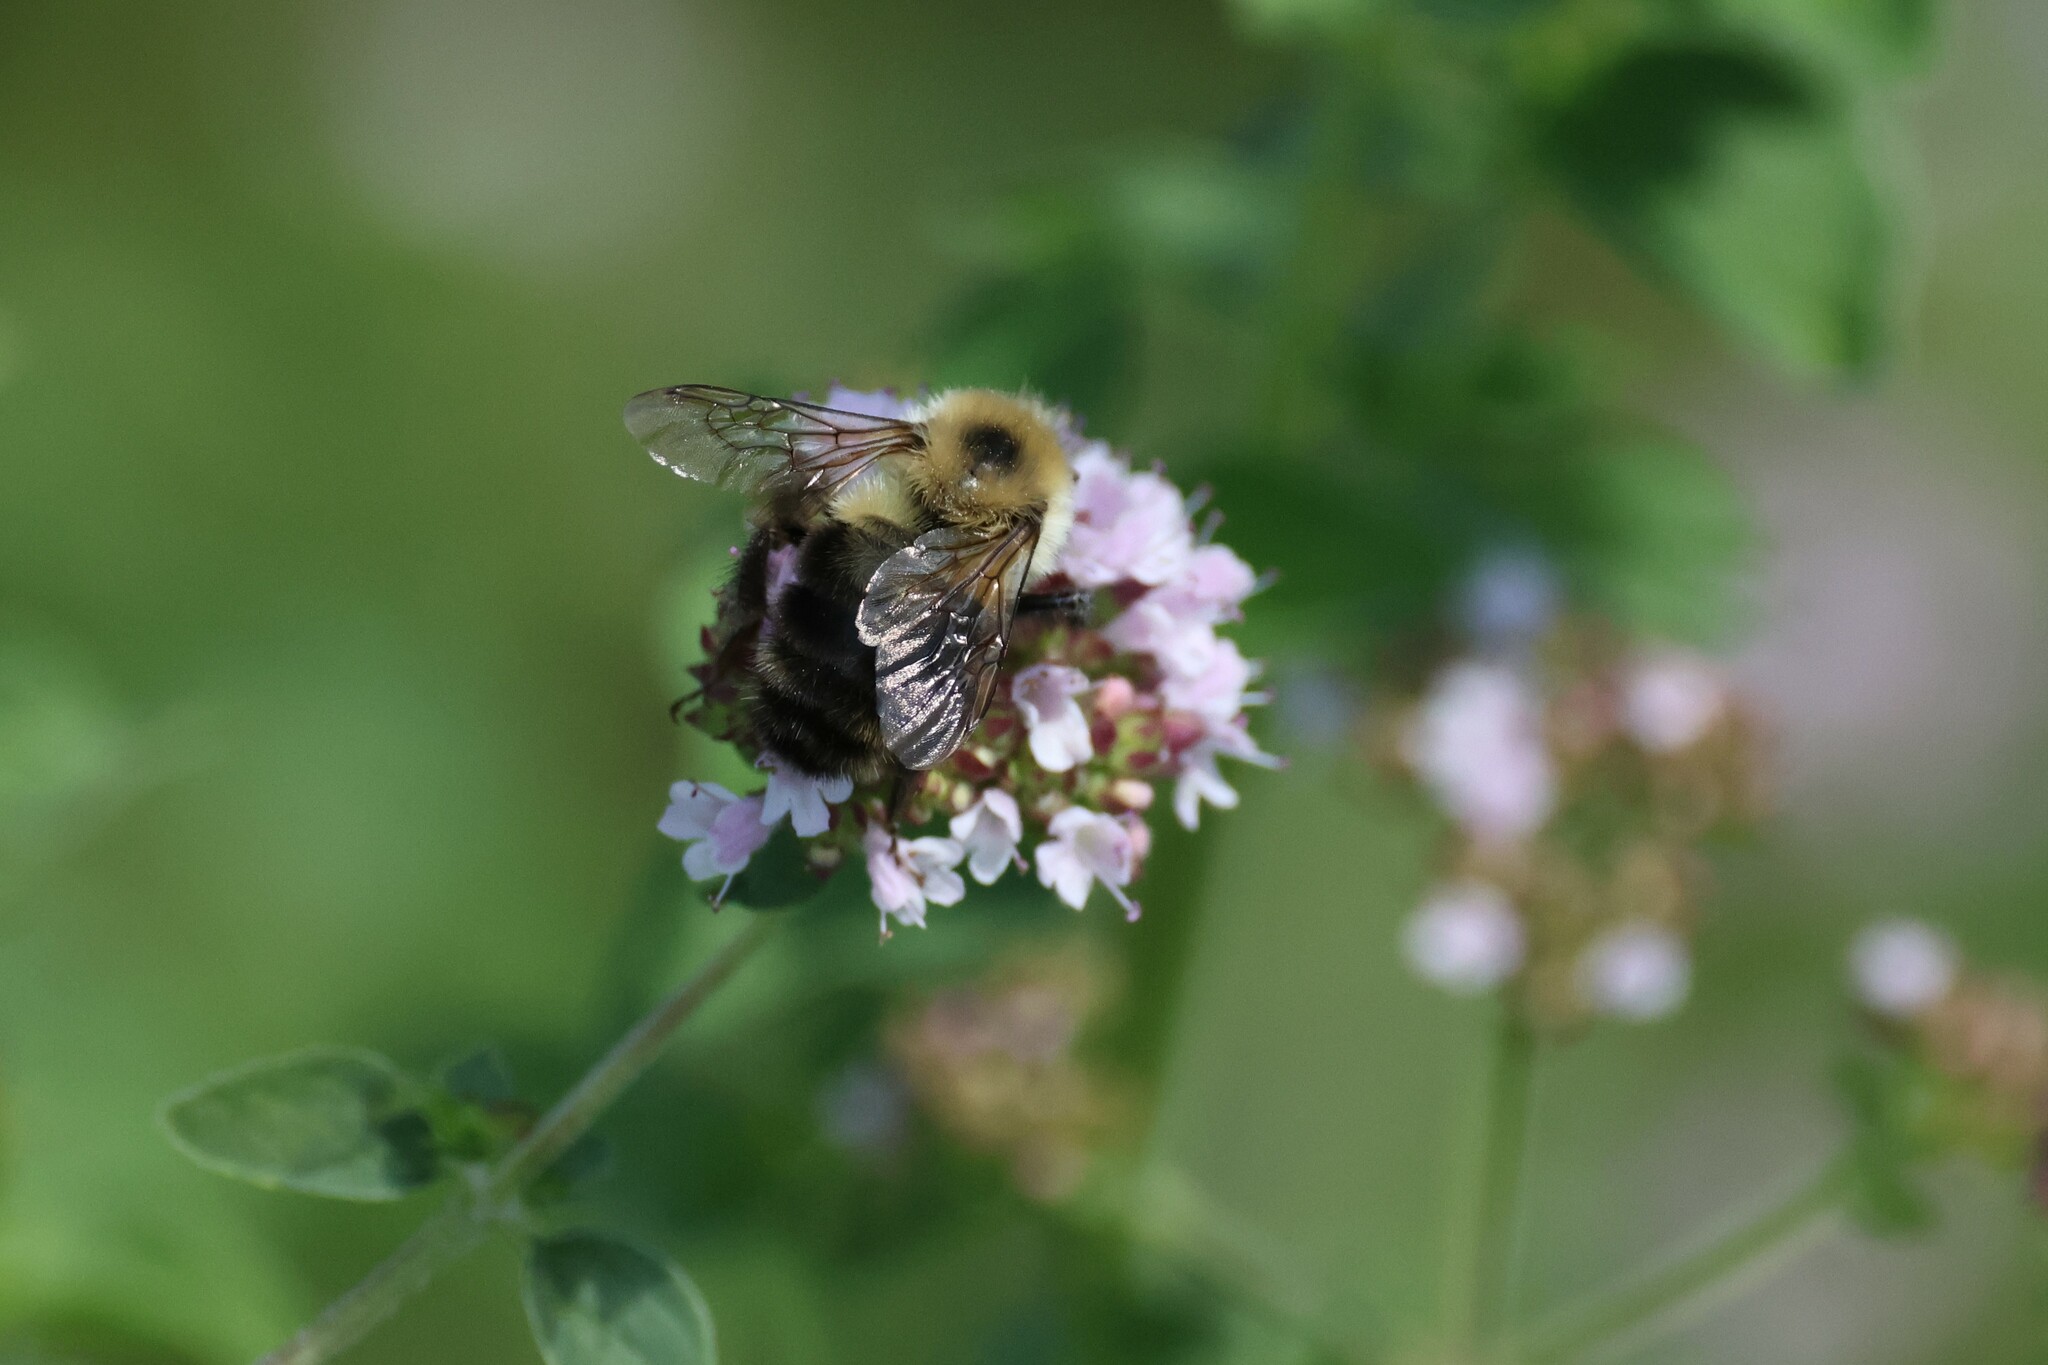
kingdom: Animalia
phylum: Arthropoda
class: Insecta
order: Hymenoptera
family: Apidae
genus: Bombus
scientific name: Bombus bimaculatus
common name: Two-spotted bumble bee
